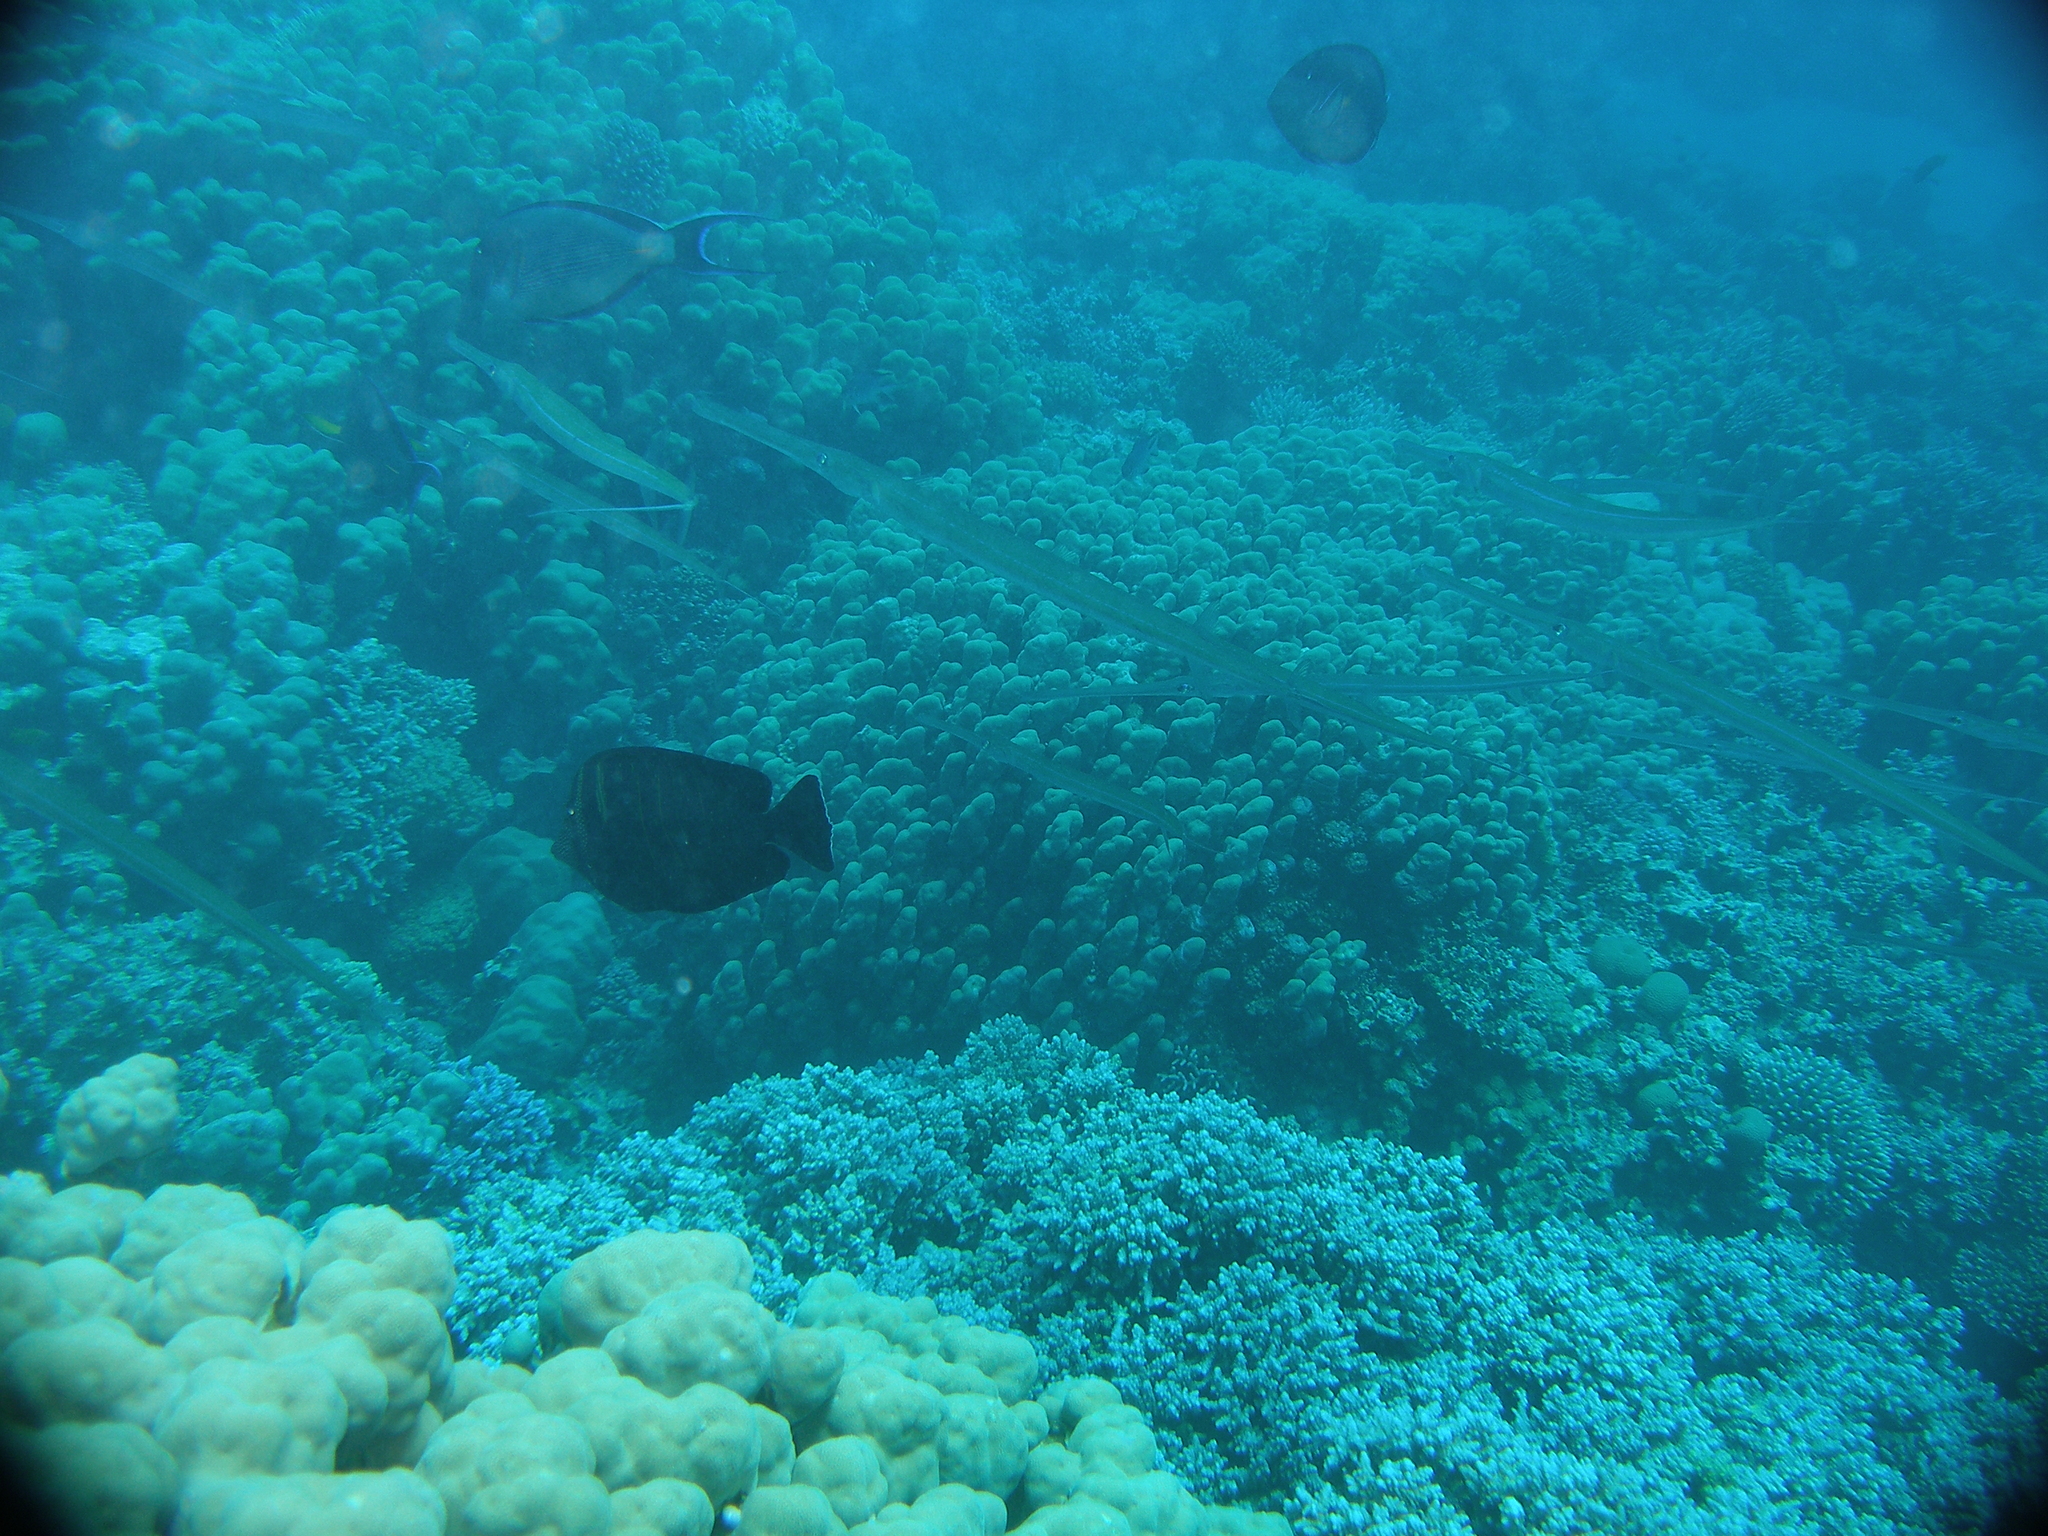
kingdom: Animalia
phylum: Chordata
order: Syngnathiformes
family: Fistulariidae
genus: Fistularia
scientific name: Fistularia commersonii
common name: Bluespotted cornetfish
